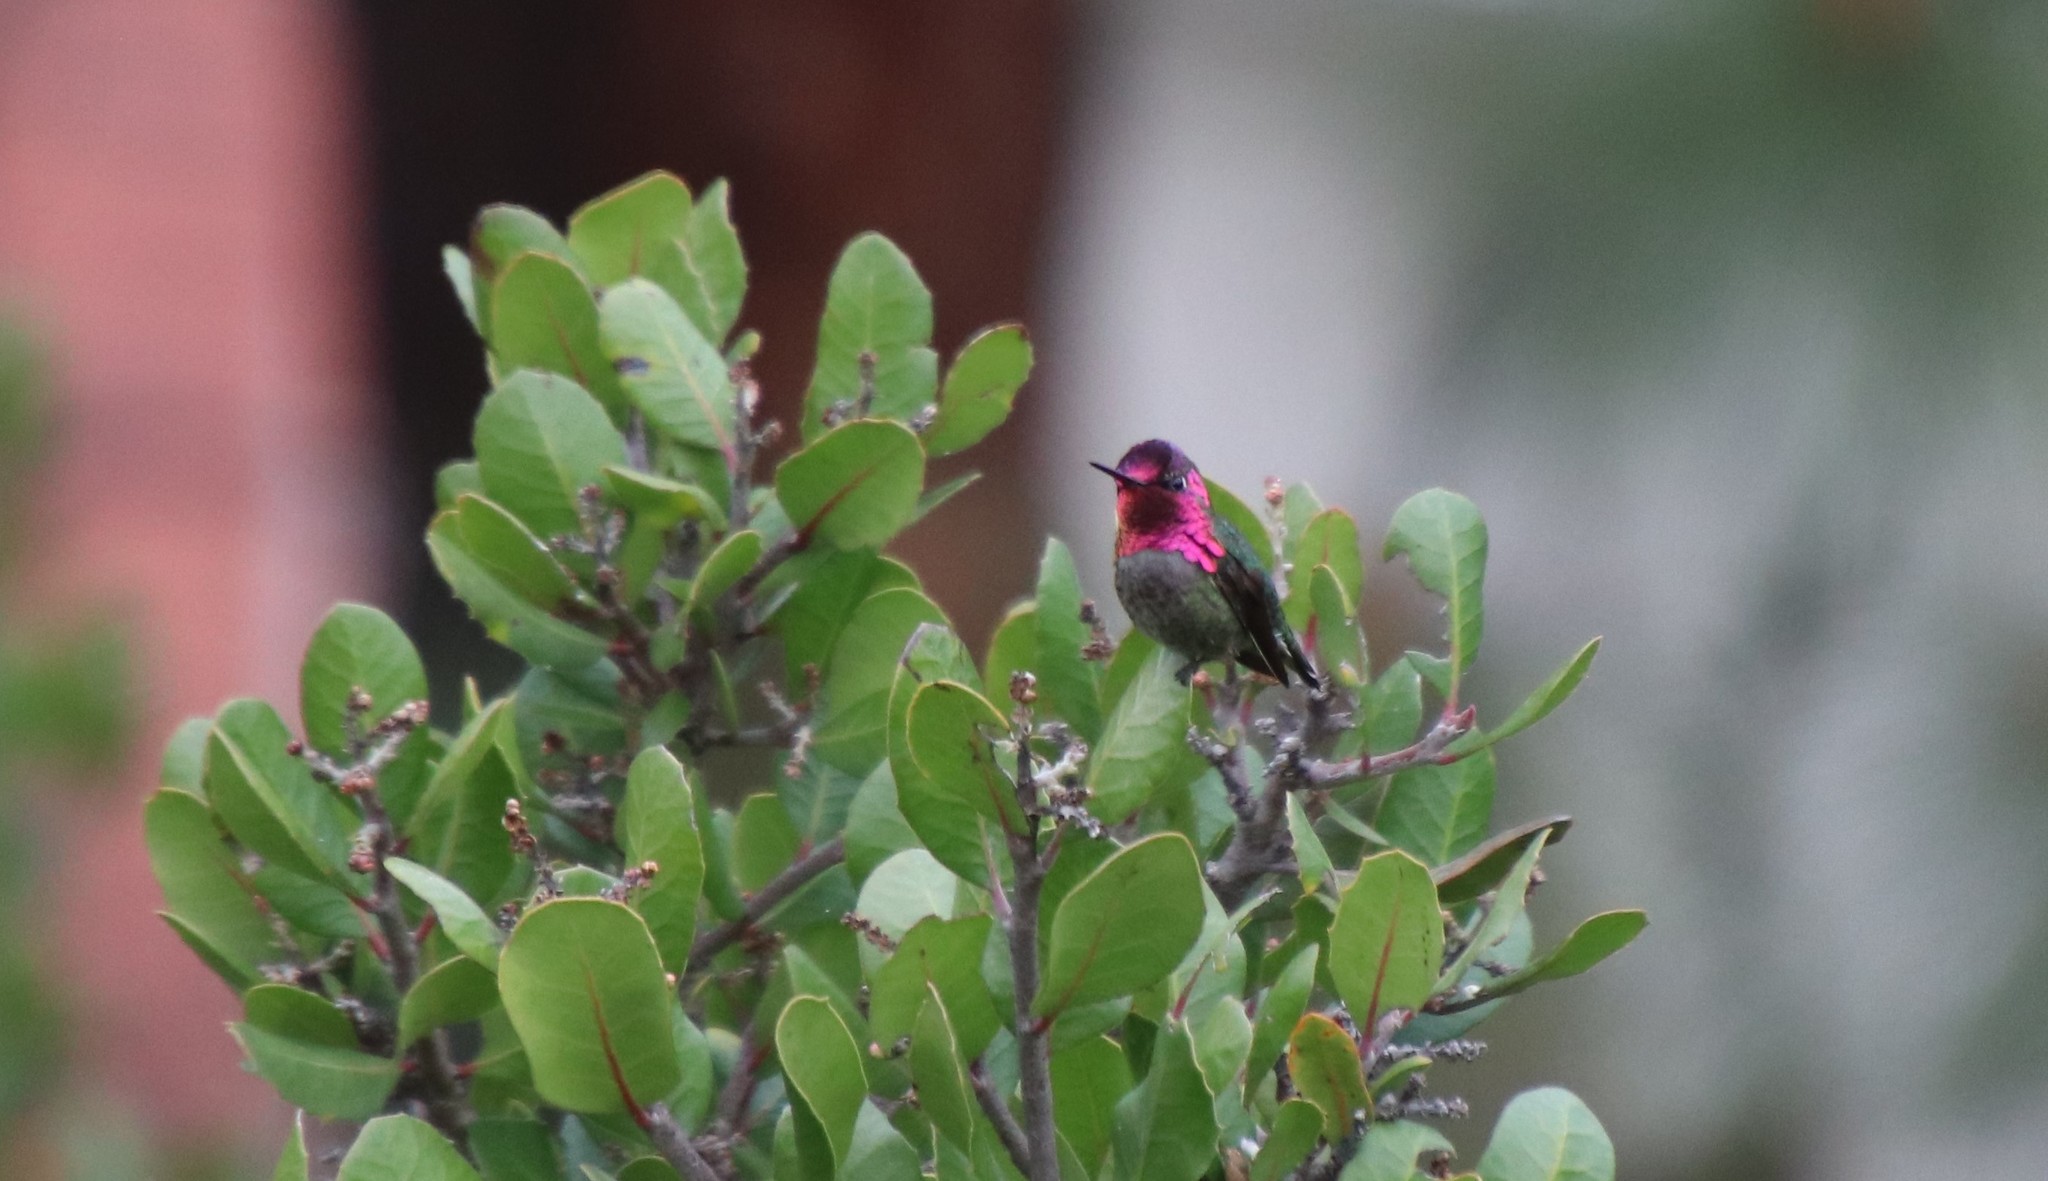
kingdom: Animalia
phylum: Chordata
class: Aves
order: Apodiformes
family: Trochilidae
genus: Calypte
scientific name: Calypte anna
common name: Anna's hummingbird
